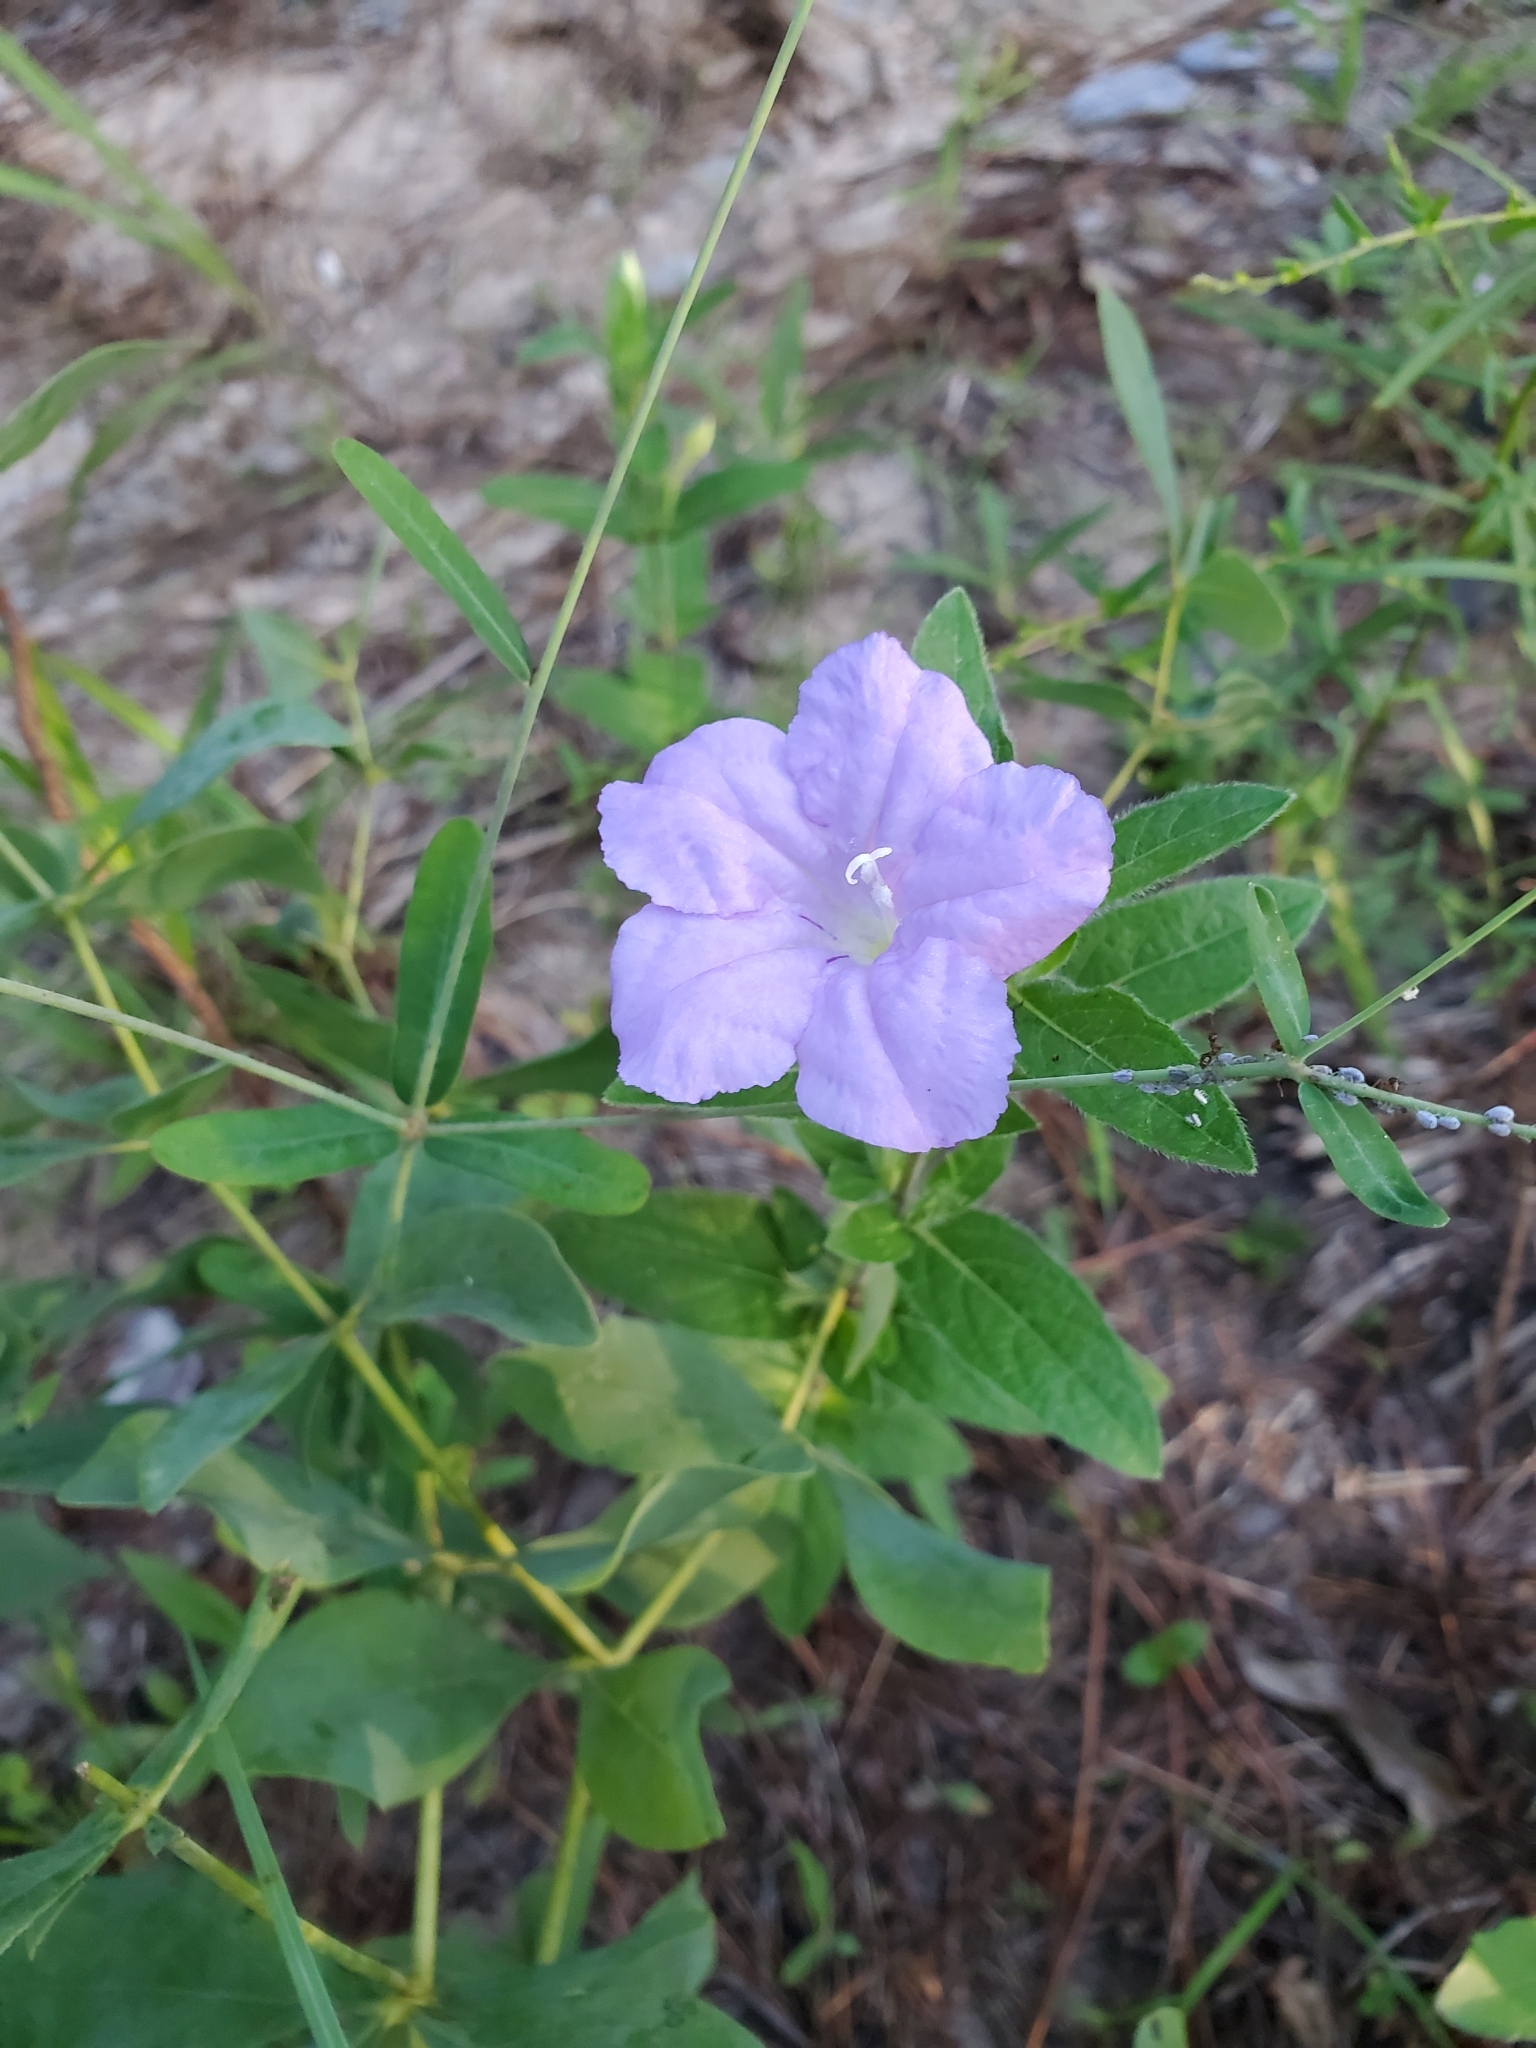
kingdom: Plantae
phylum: Tracheophyta
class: Magnoliopsida
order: Lamiales
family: Acanthaceae
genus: Ruellia
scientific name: Ruellia humilis
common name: Fringe-leaf ruellia
